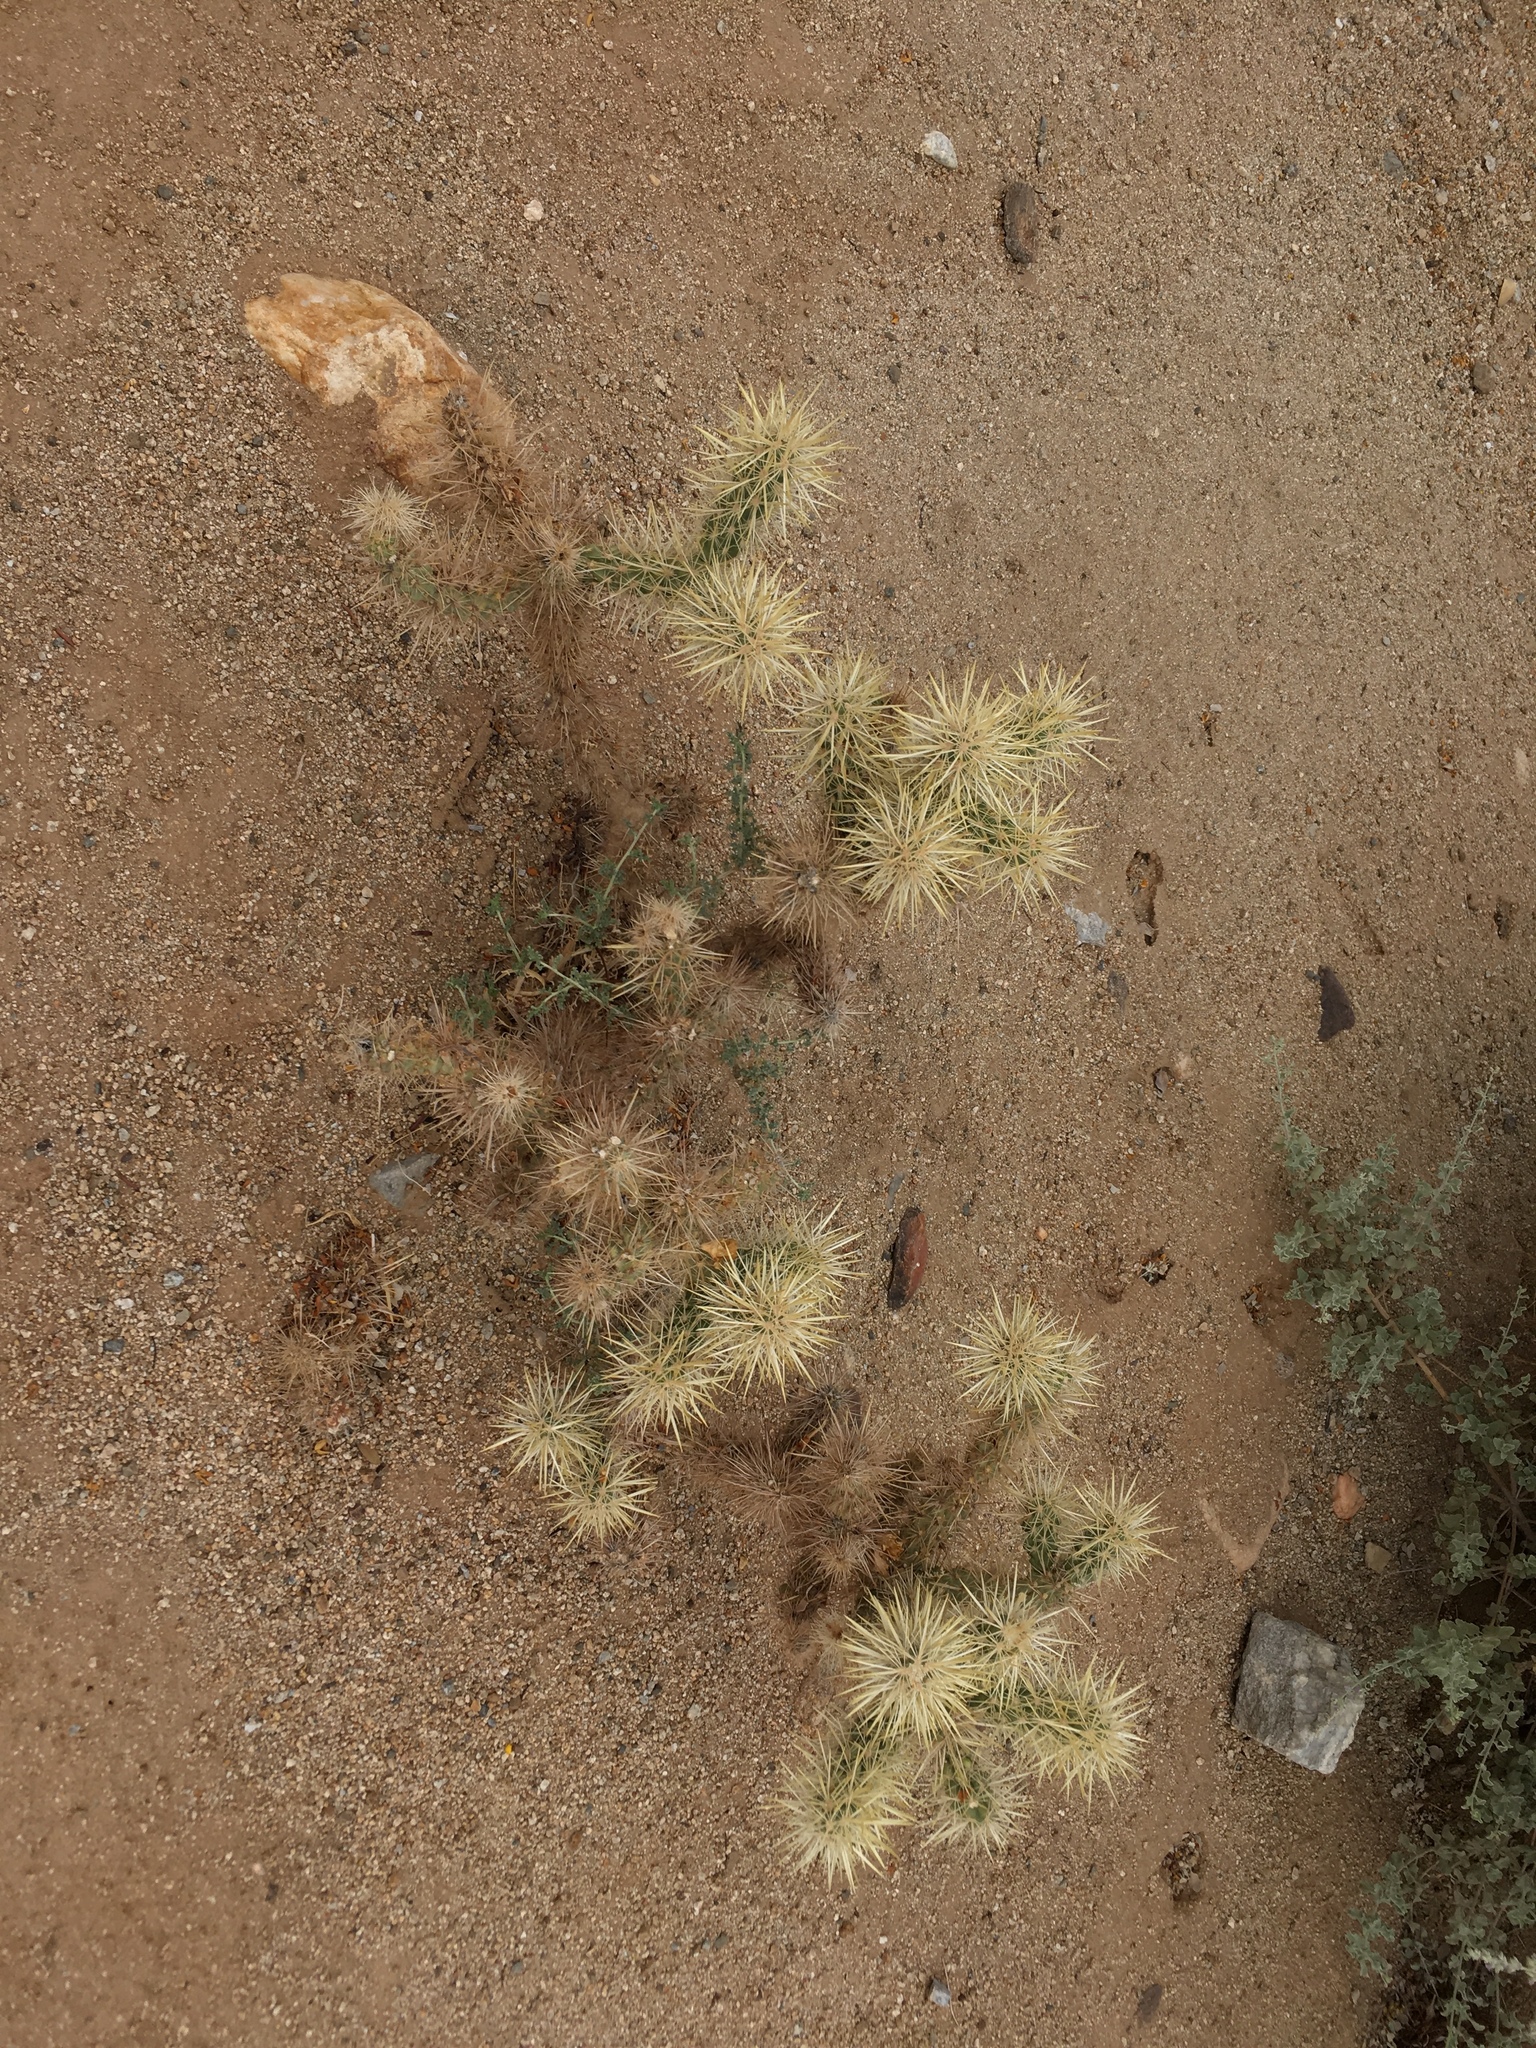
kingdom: Plantae
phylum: Tracheophyta
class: Magnoliopsida
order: Caryophyllales
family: Cactaceae
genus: Cylindropuntia
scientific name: Cylindropuntia echinocarpa
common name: Ground cholla
